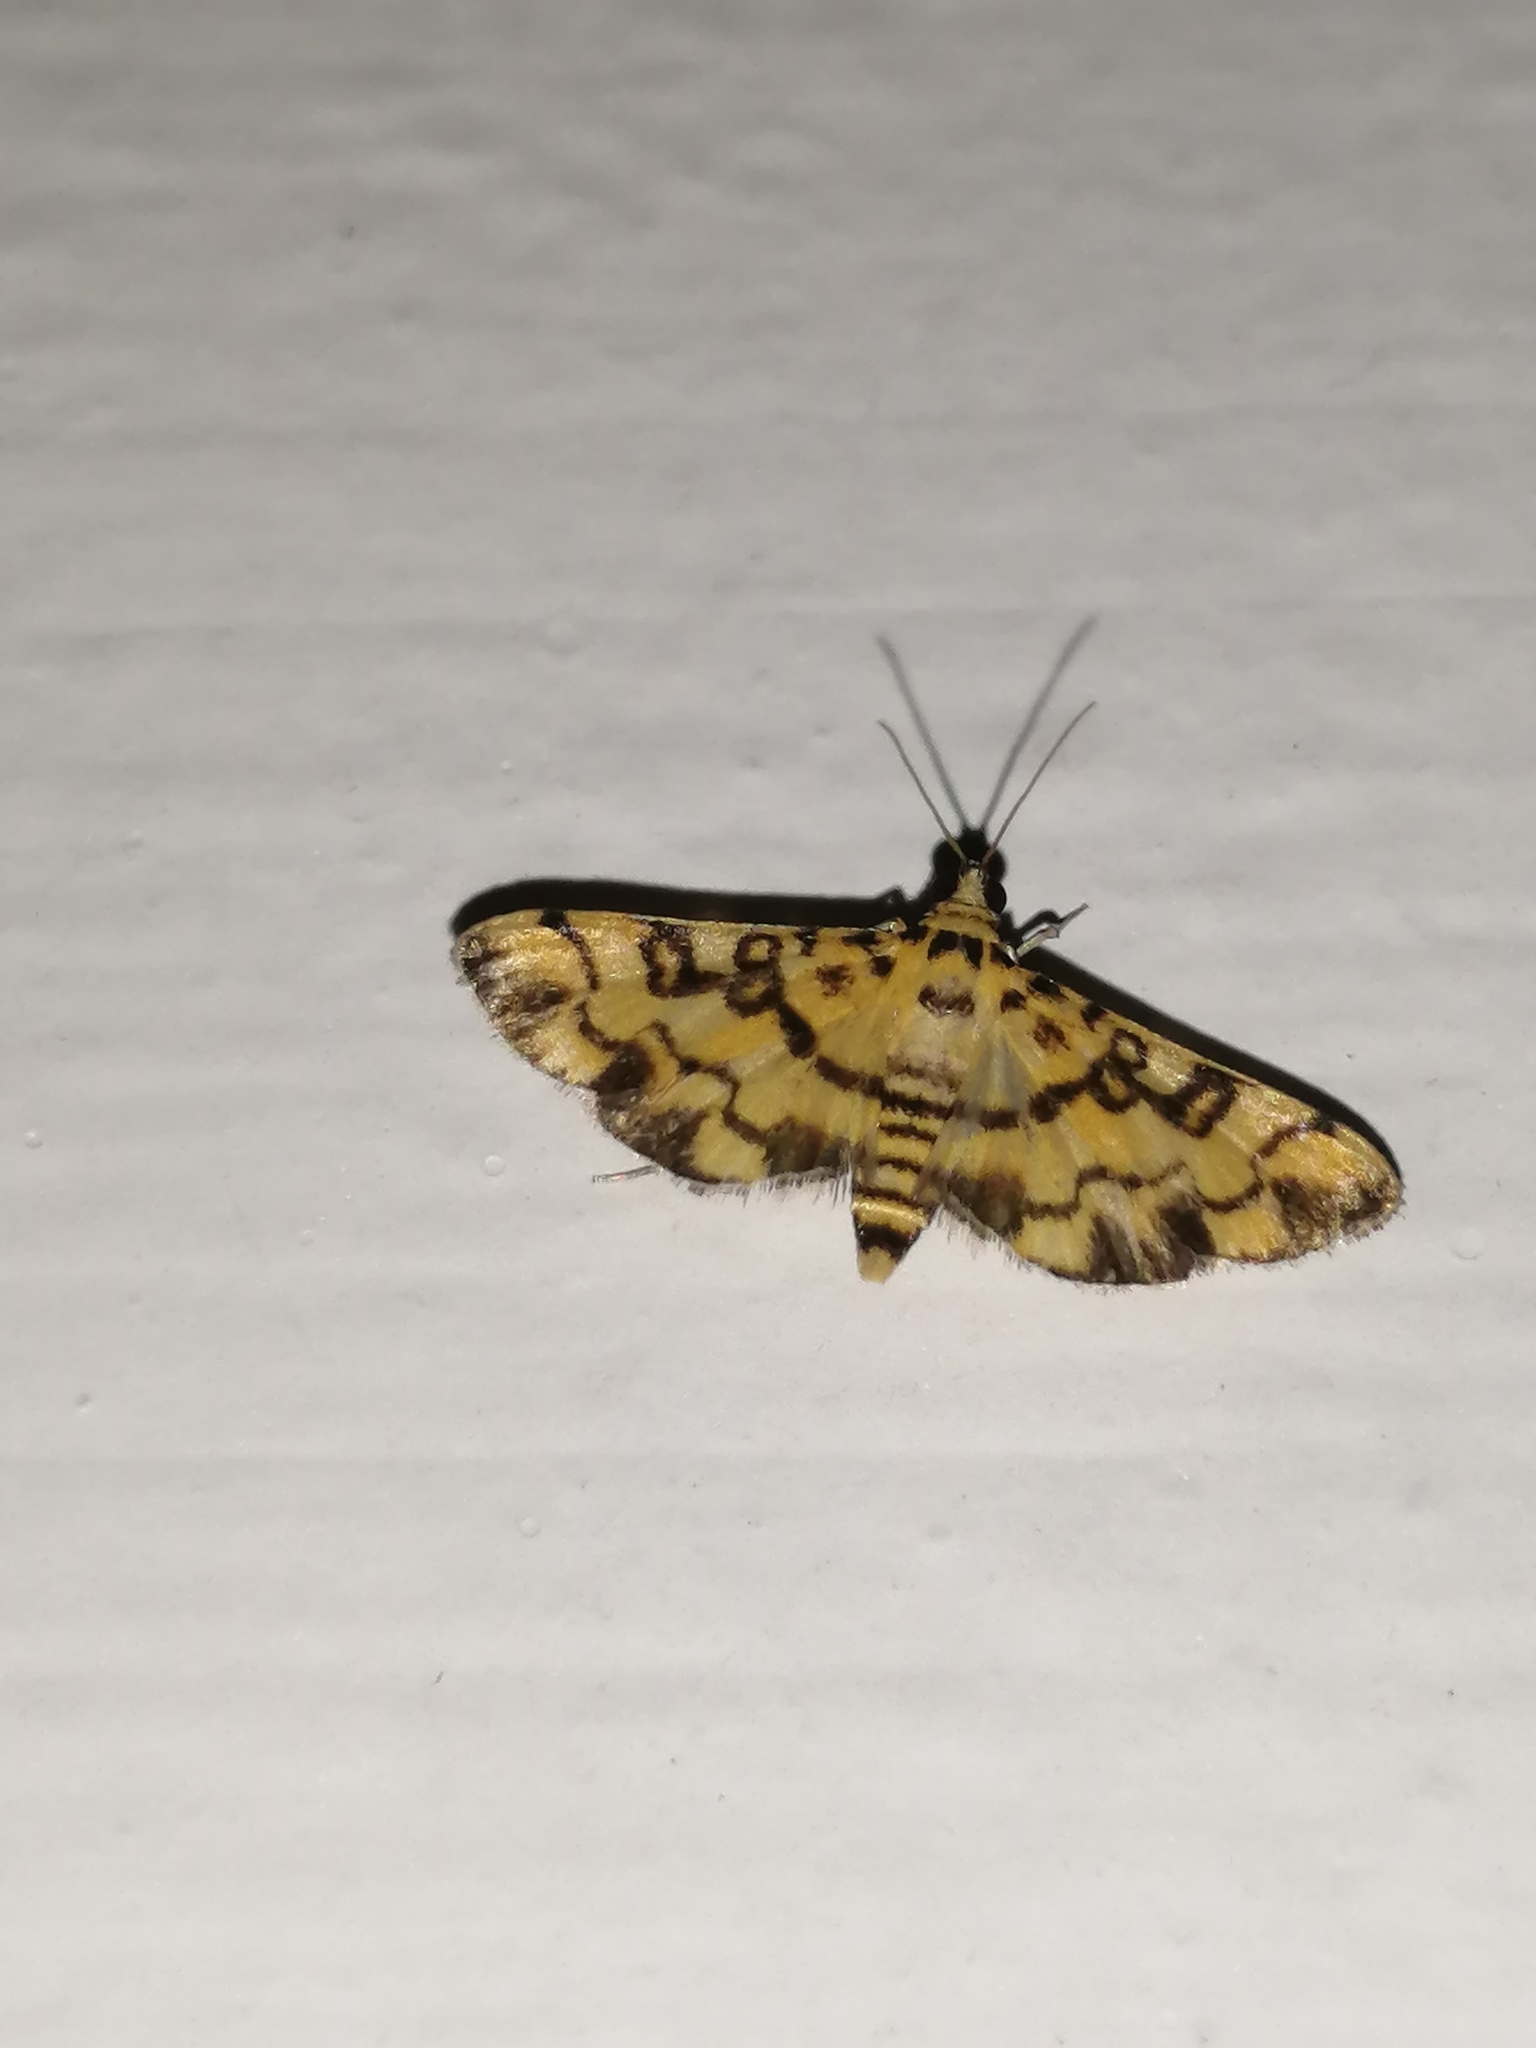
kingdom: Animalia
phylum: Arthropoda
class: Insecta
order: Lepidoptera
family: Crambidae
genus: Glycythyma
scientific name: Glycythyma chrysorycta
